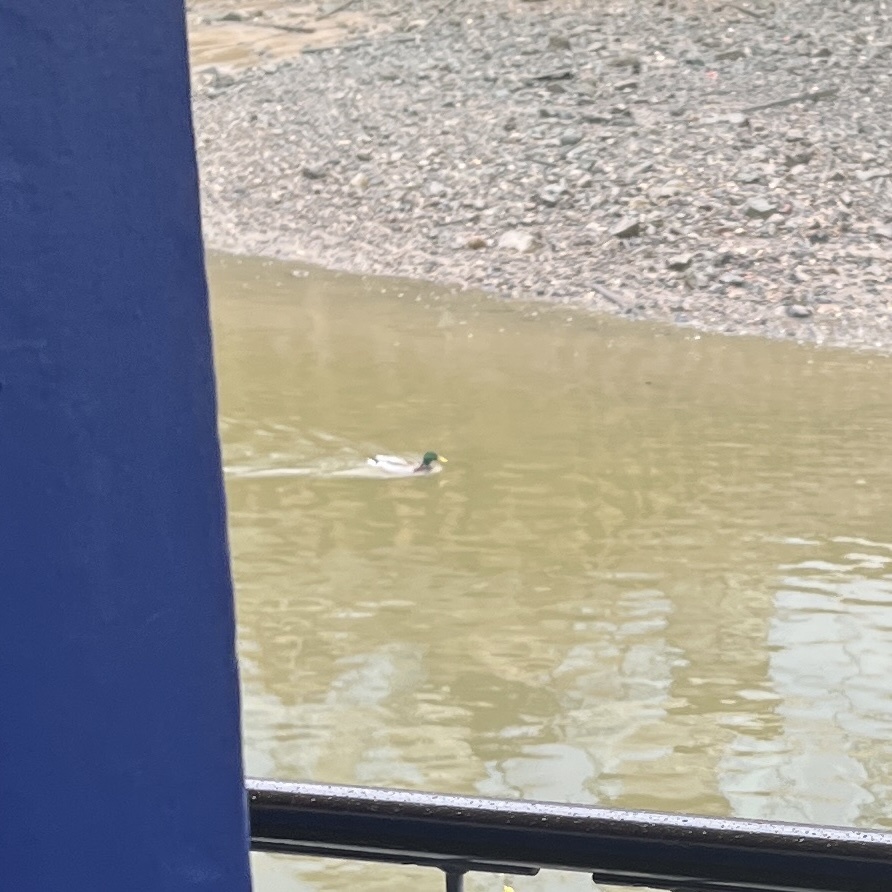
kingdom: Animalia
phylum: Chordata
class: Aves
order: Anseriformes
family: Anatidae
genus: Anas
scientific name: Anas platyrhynchos
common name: Mallard
